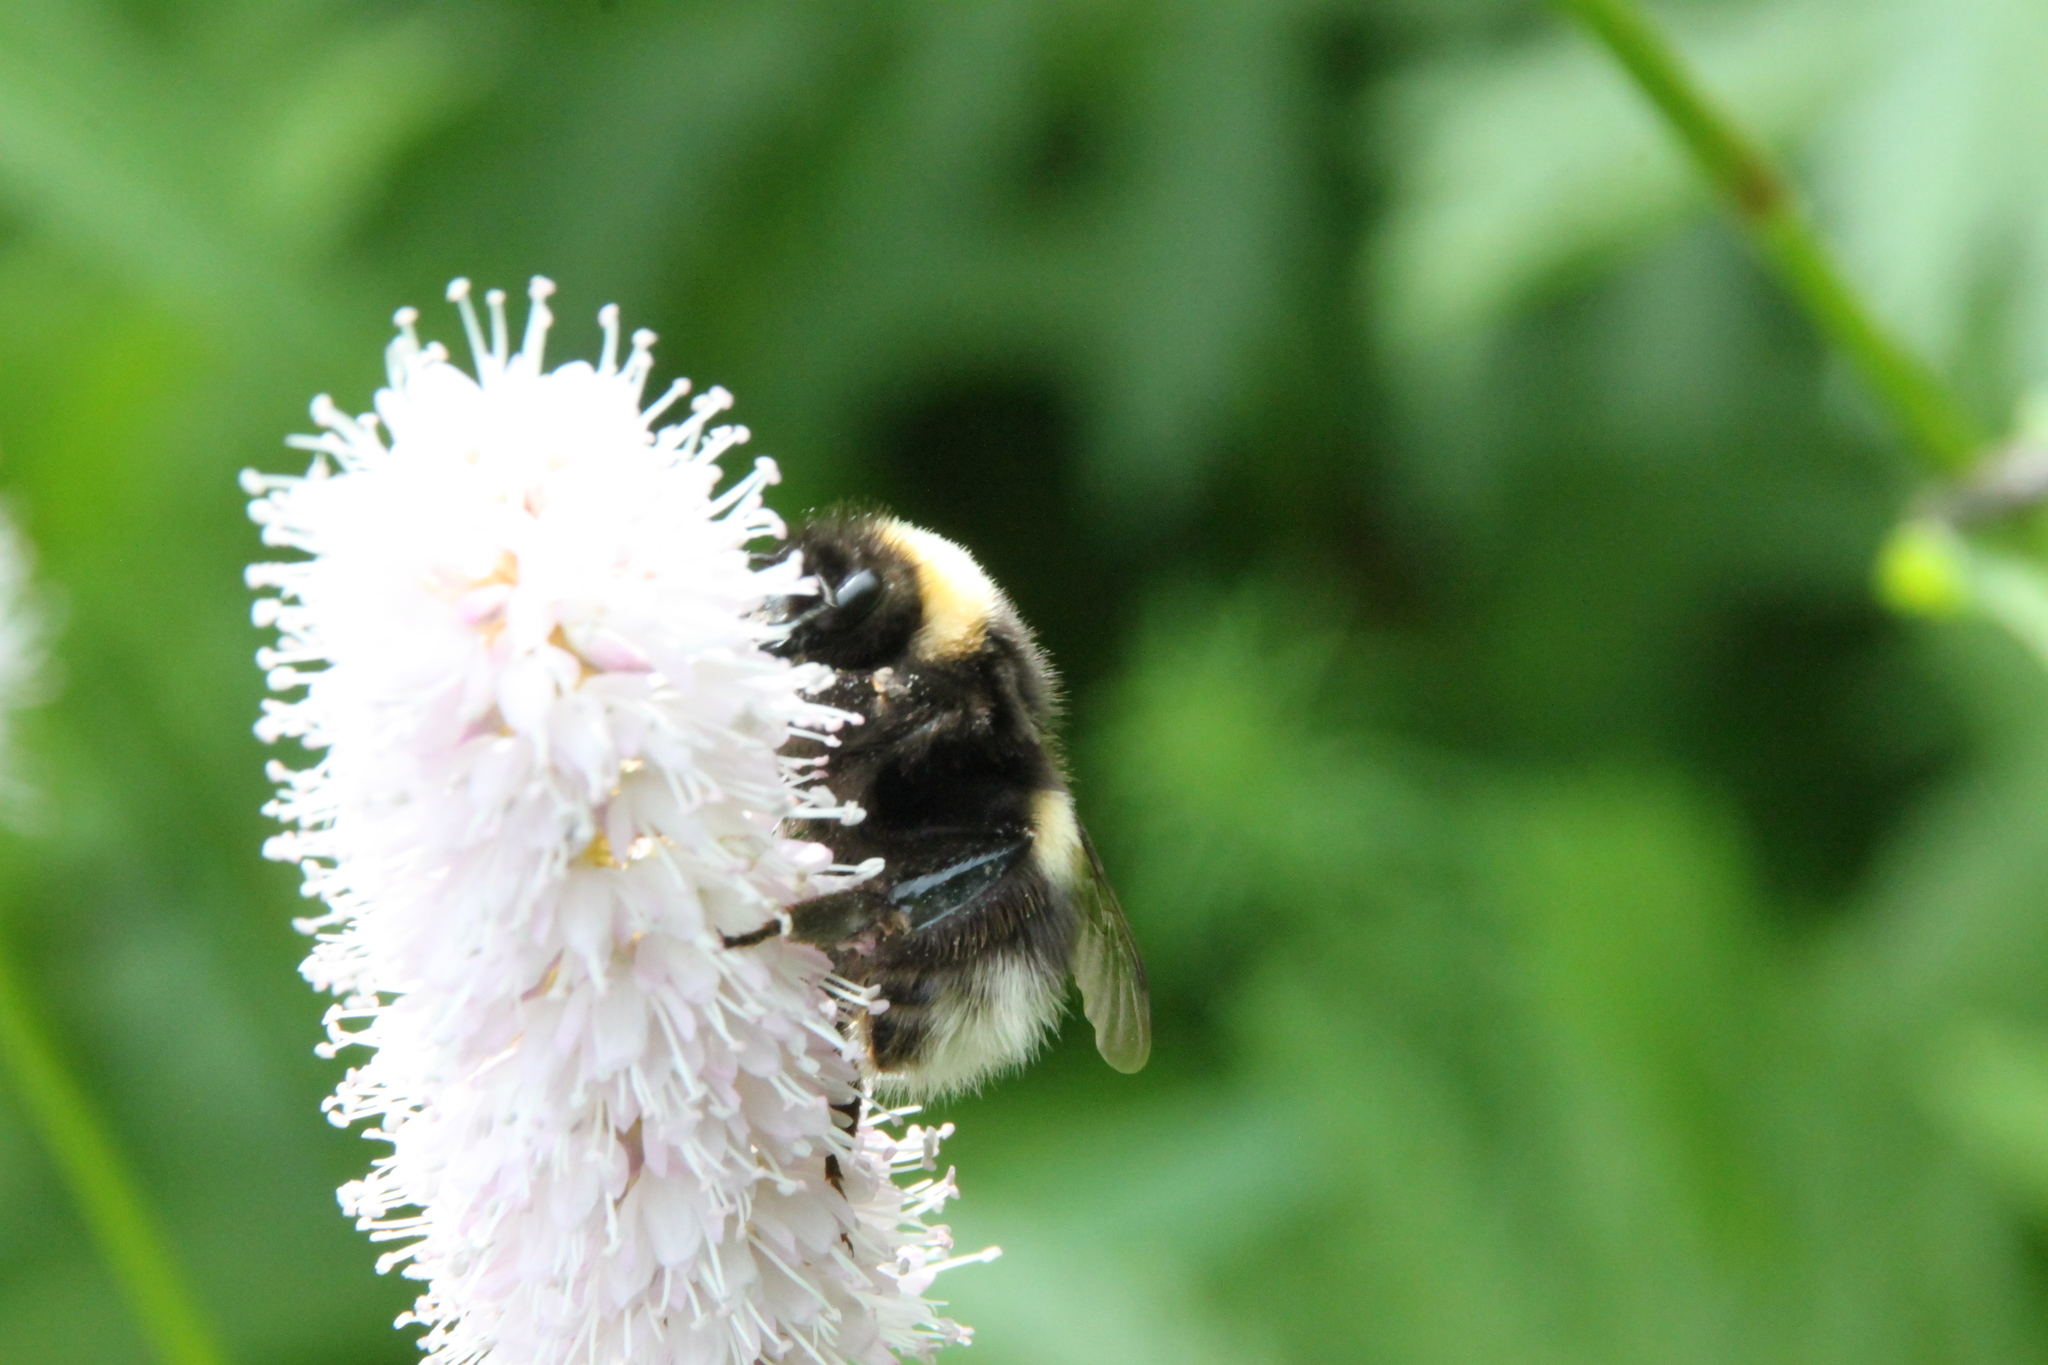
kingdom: Animalia
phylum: Arthropoda
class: Insecta
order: Hymenoptera
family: Apidae
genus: Bombus
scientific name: Bombus
